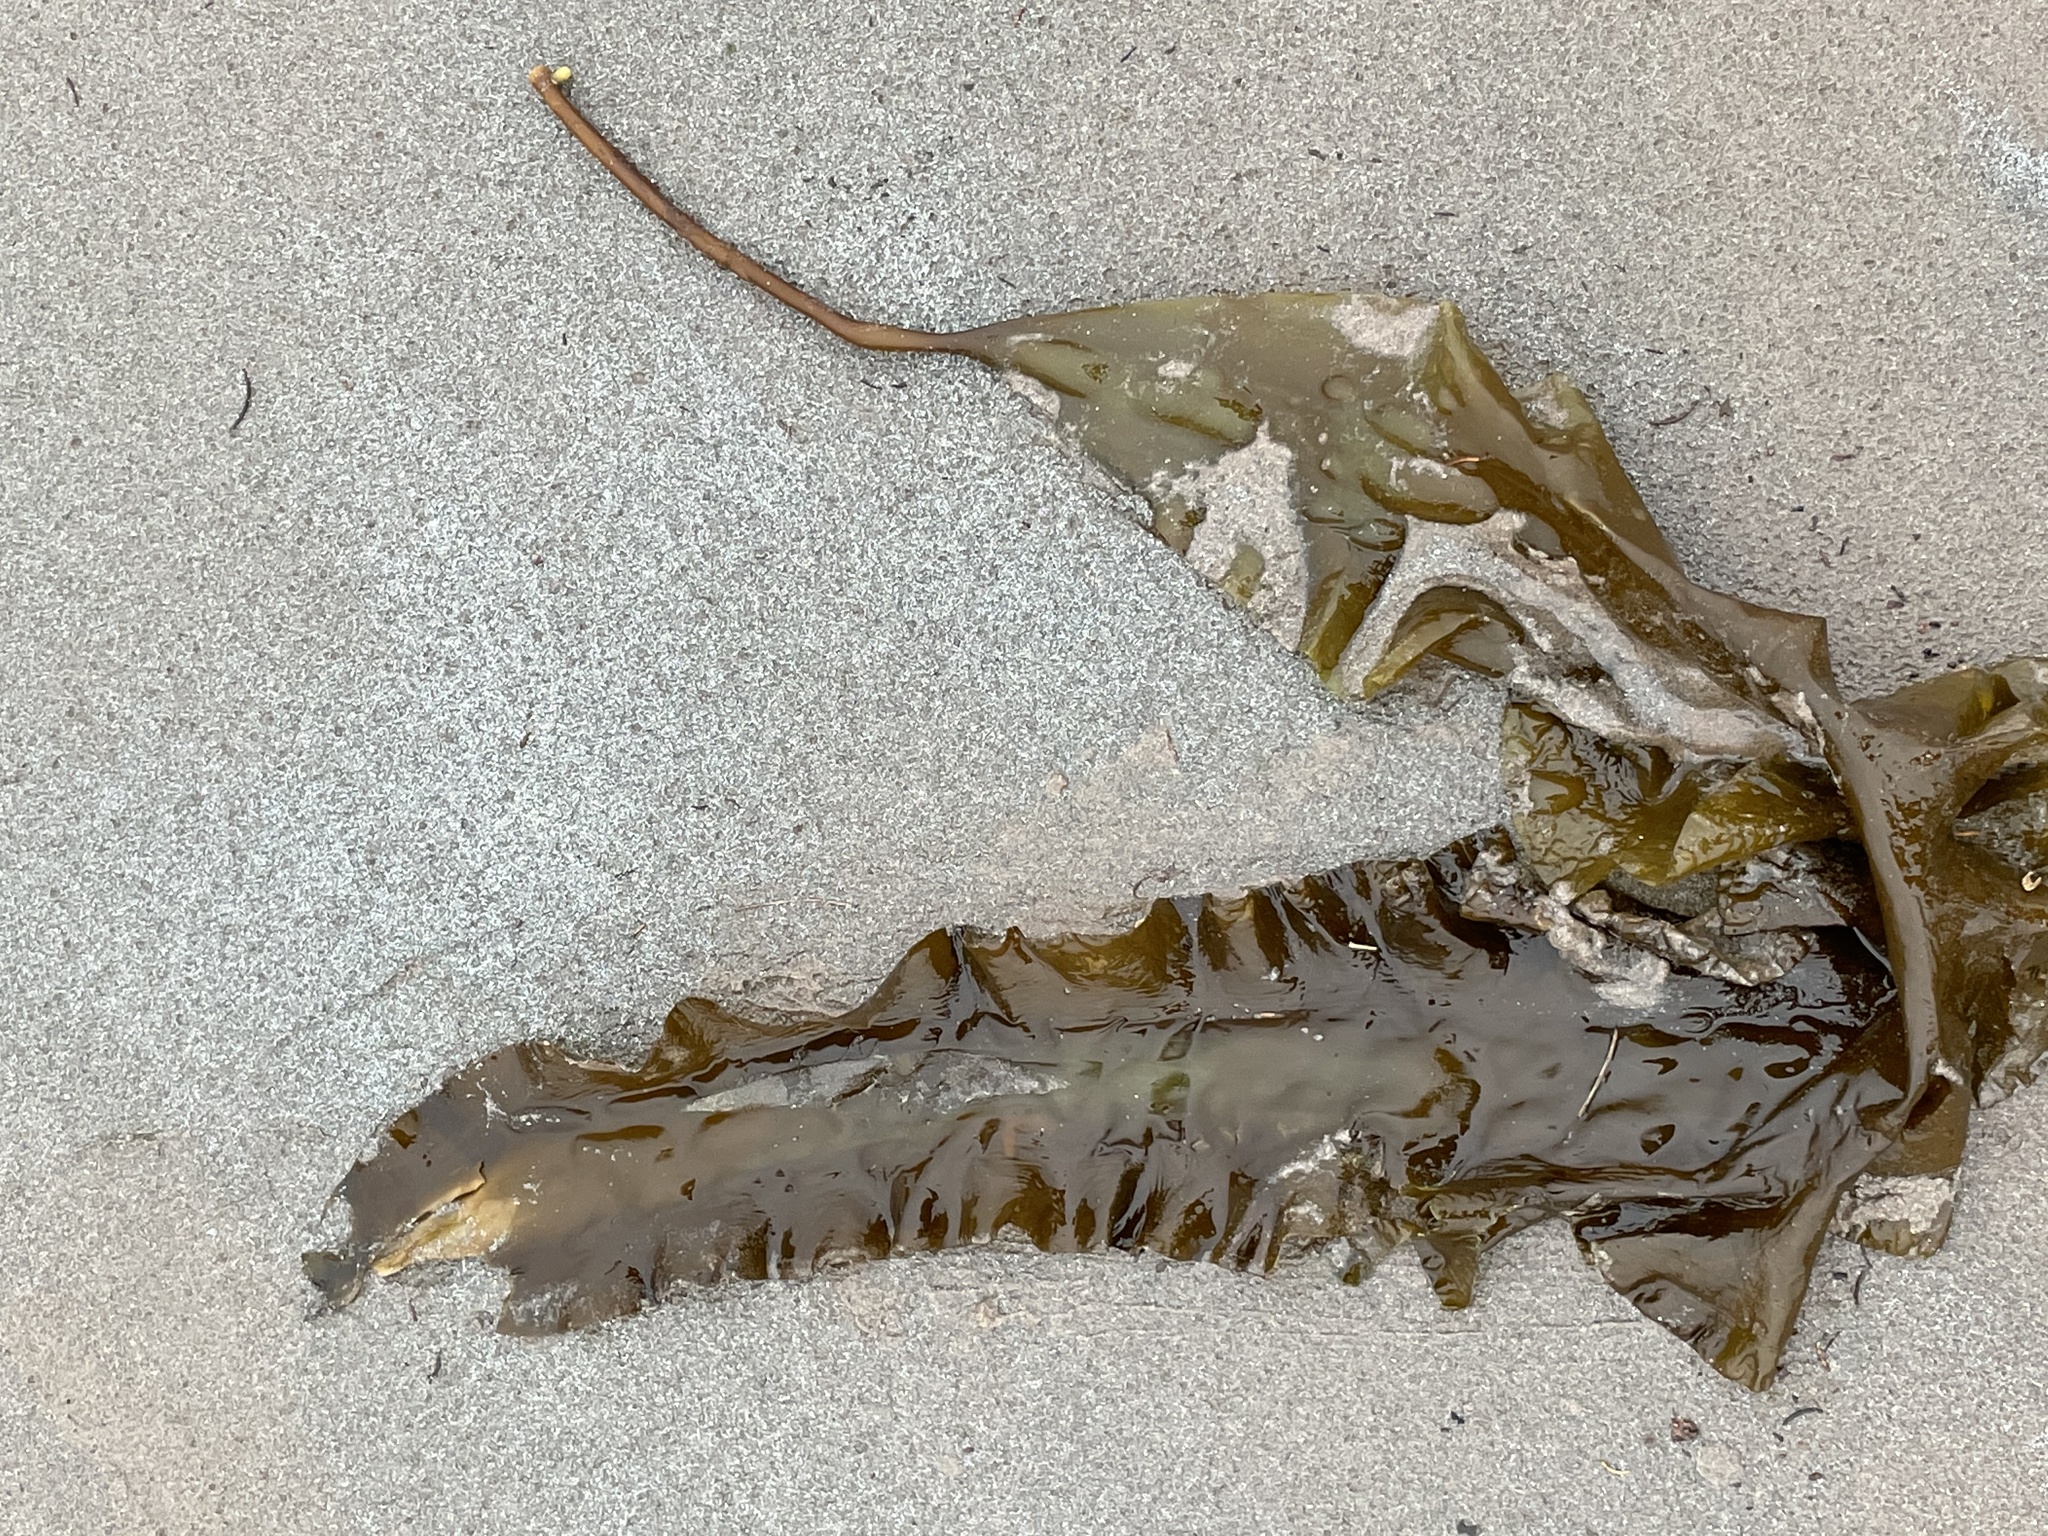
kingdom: Chromista
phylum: Ochrophyta
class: Phaeophyceae
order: Laminariales
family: Laminariaceae
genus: Saccharina
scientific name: Saccharina latissima
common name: Poor man's weather glass
